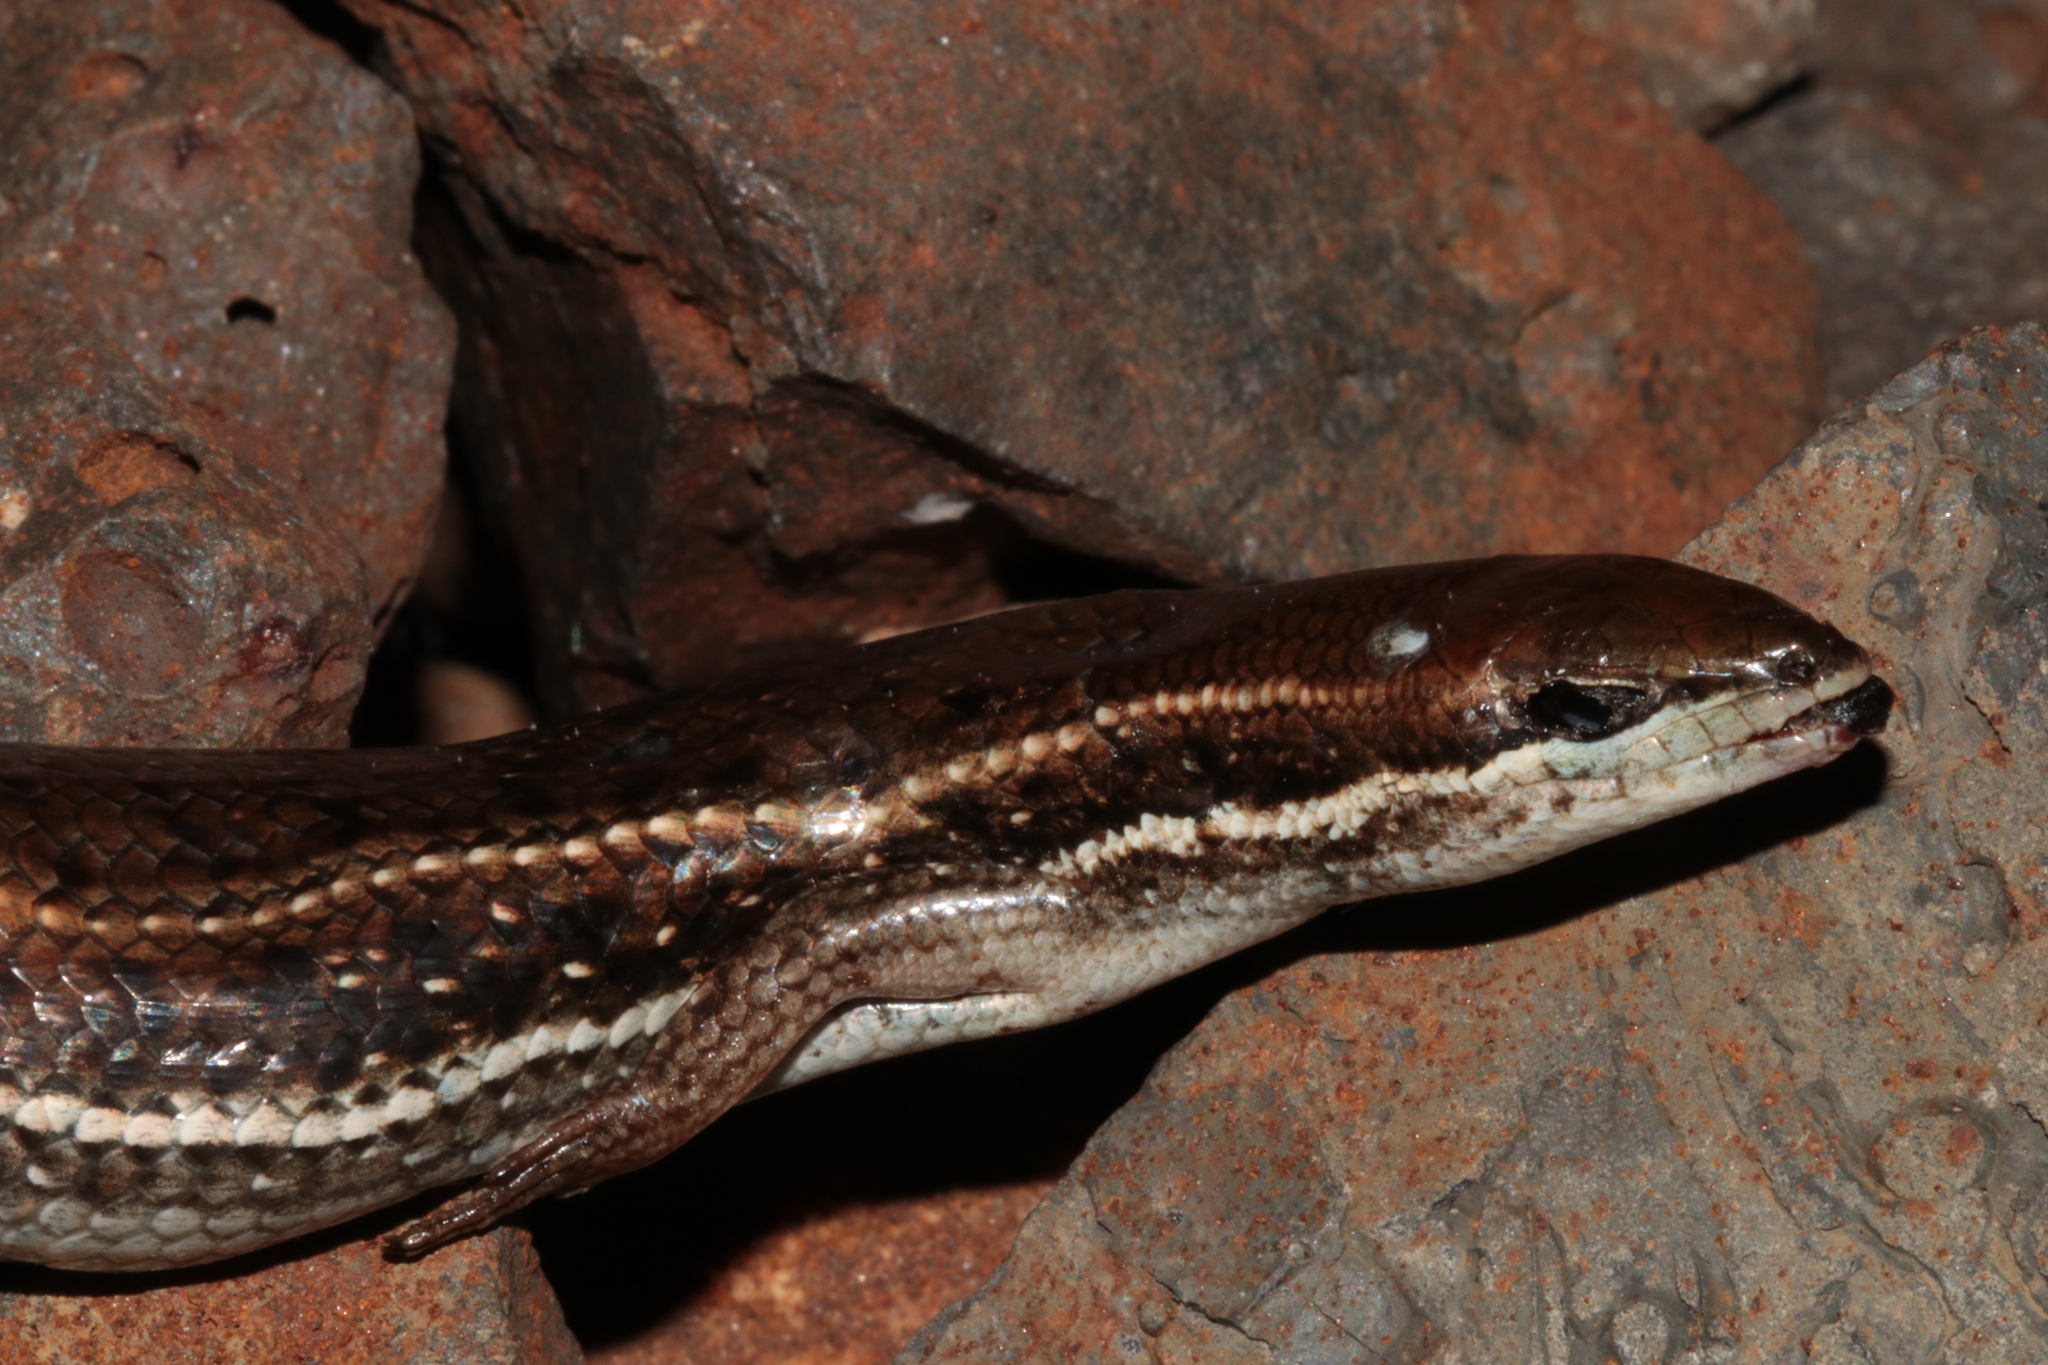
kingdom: Animalia
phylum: Chordata
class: Squamata
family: Scincidae
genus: Trachylepis
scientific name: Trachylepis damarana
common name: Damara skink
